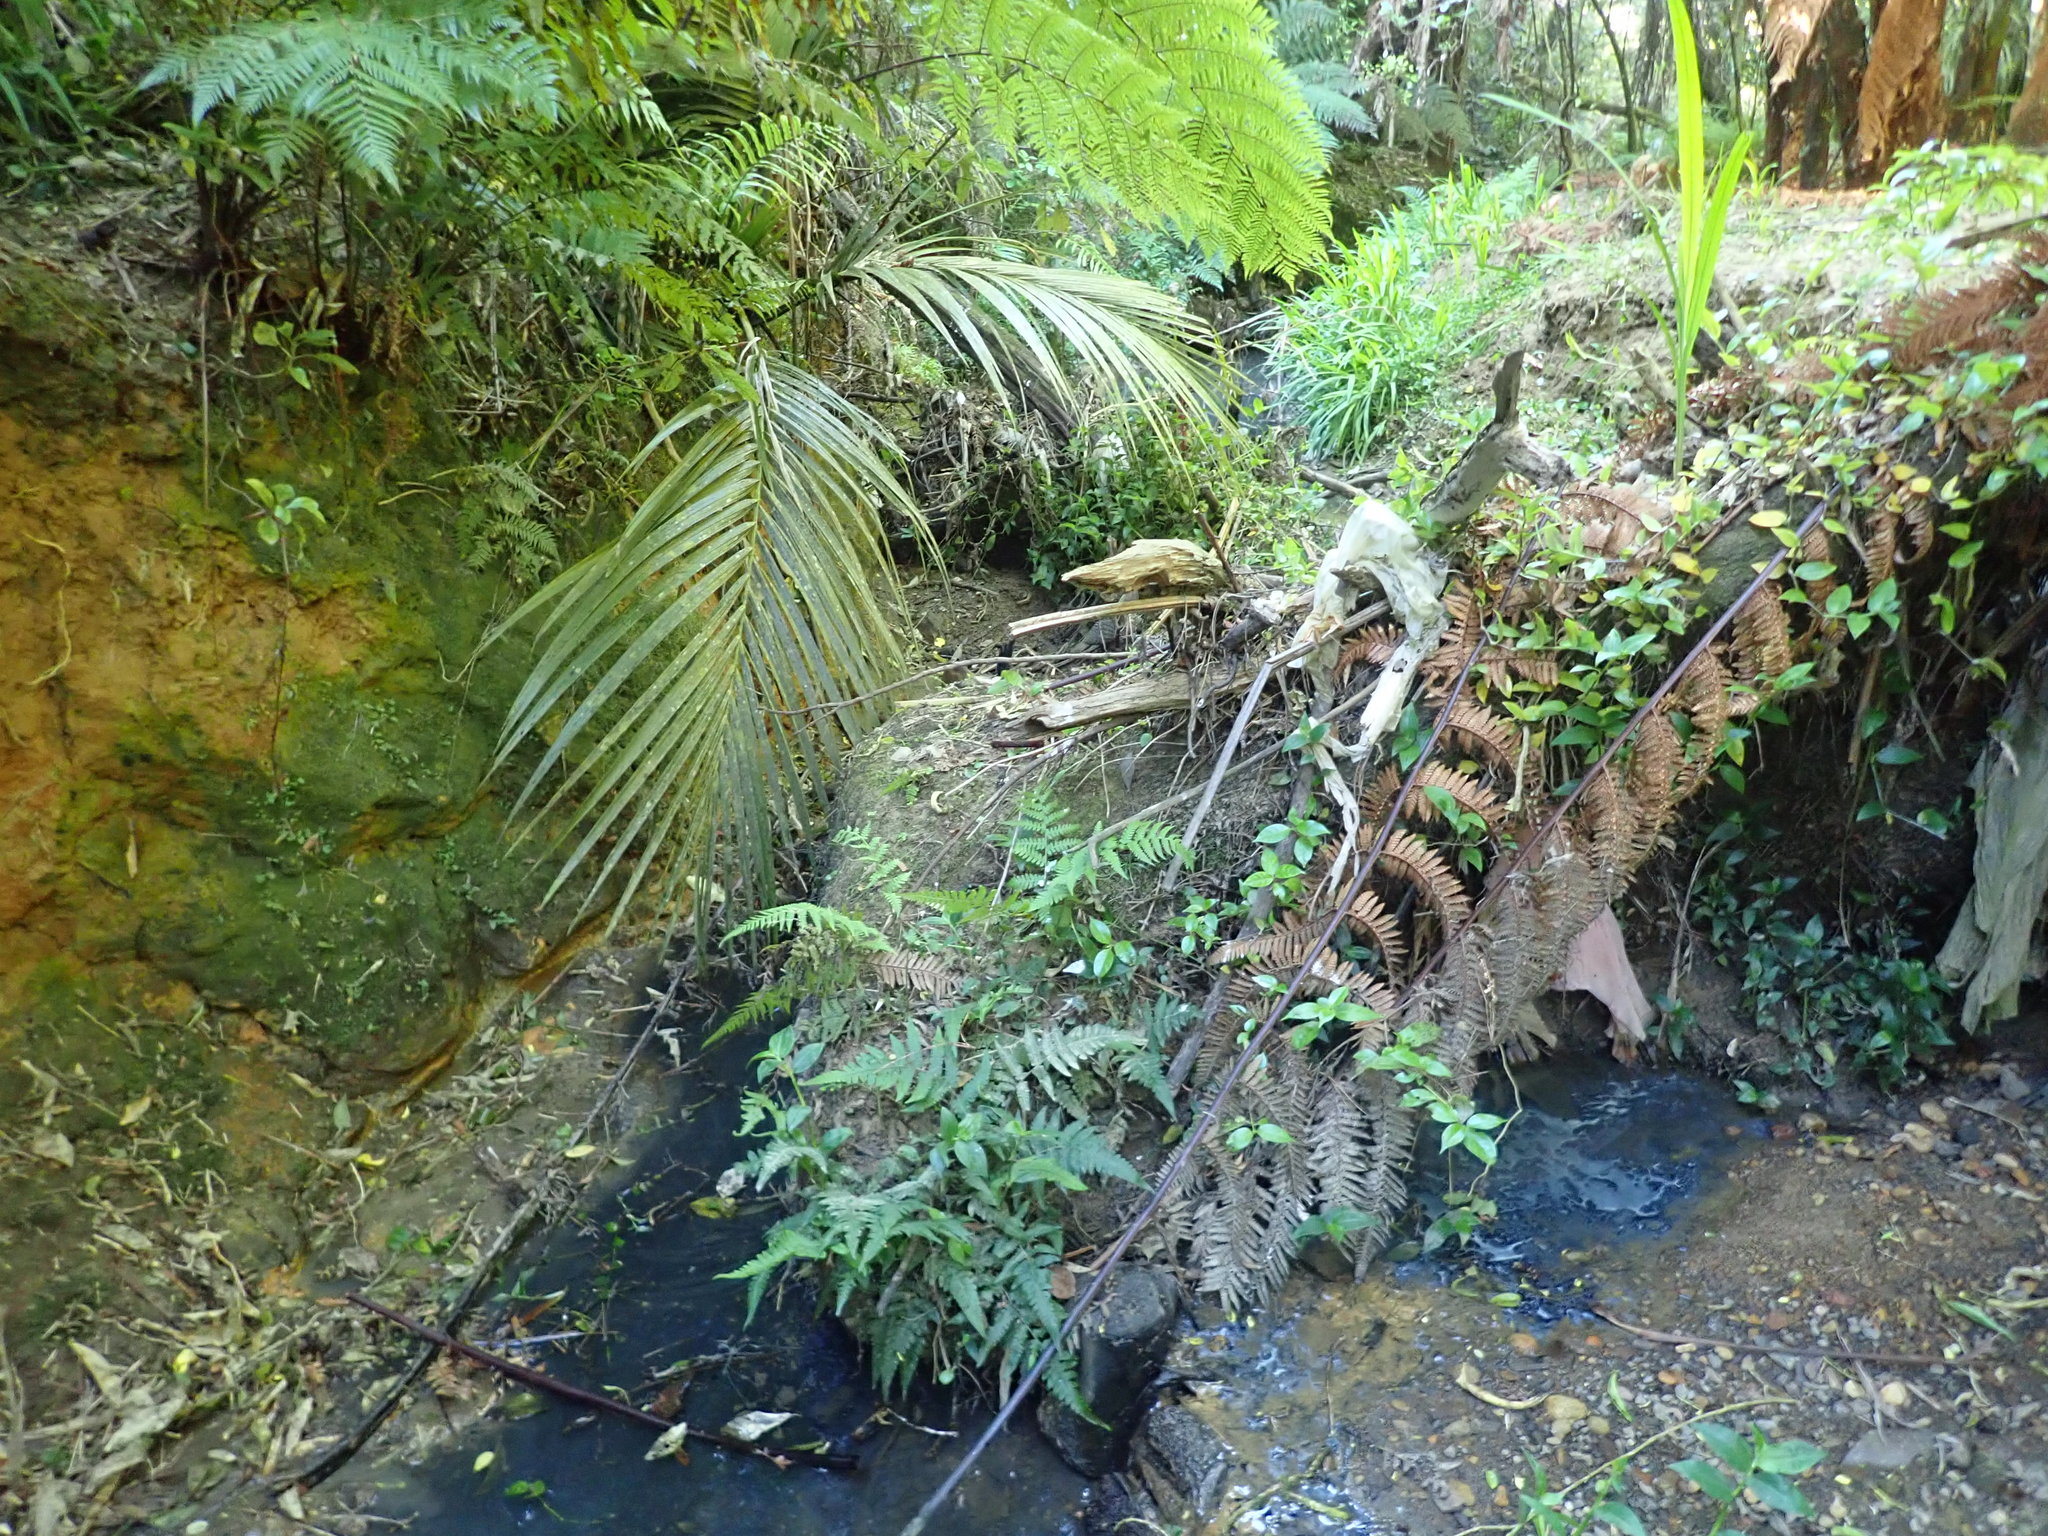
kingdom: Plantae
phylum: Tracheophyta
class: Magnoliopsida
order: Gentianales
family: Loganiaceae
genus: Geniostoma
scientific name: Geniostoma ligustrifolium
